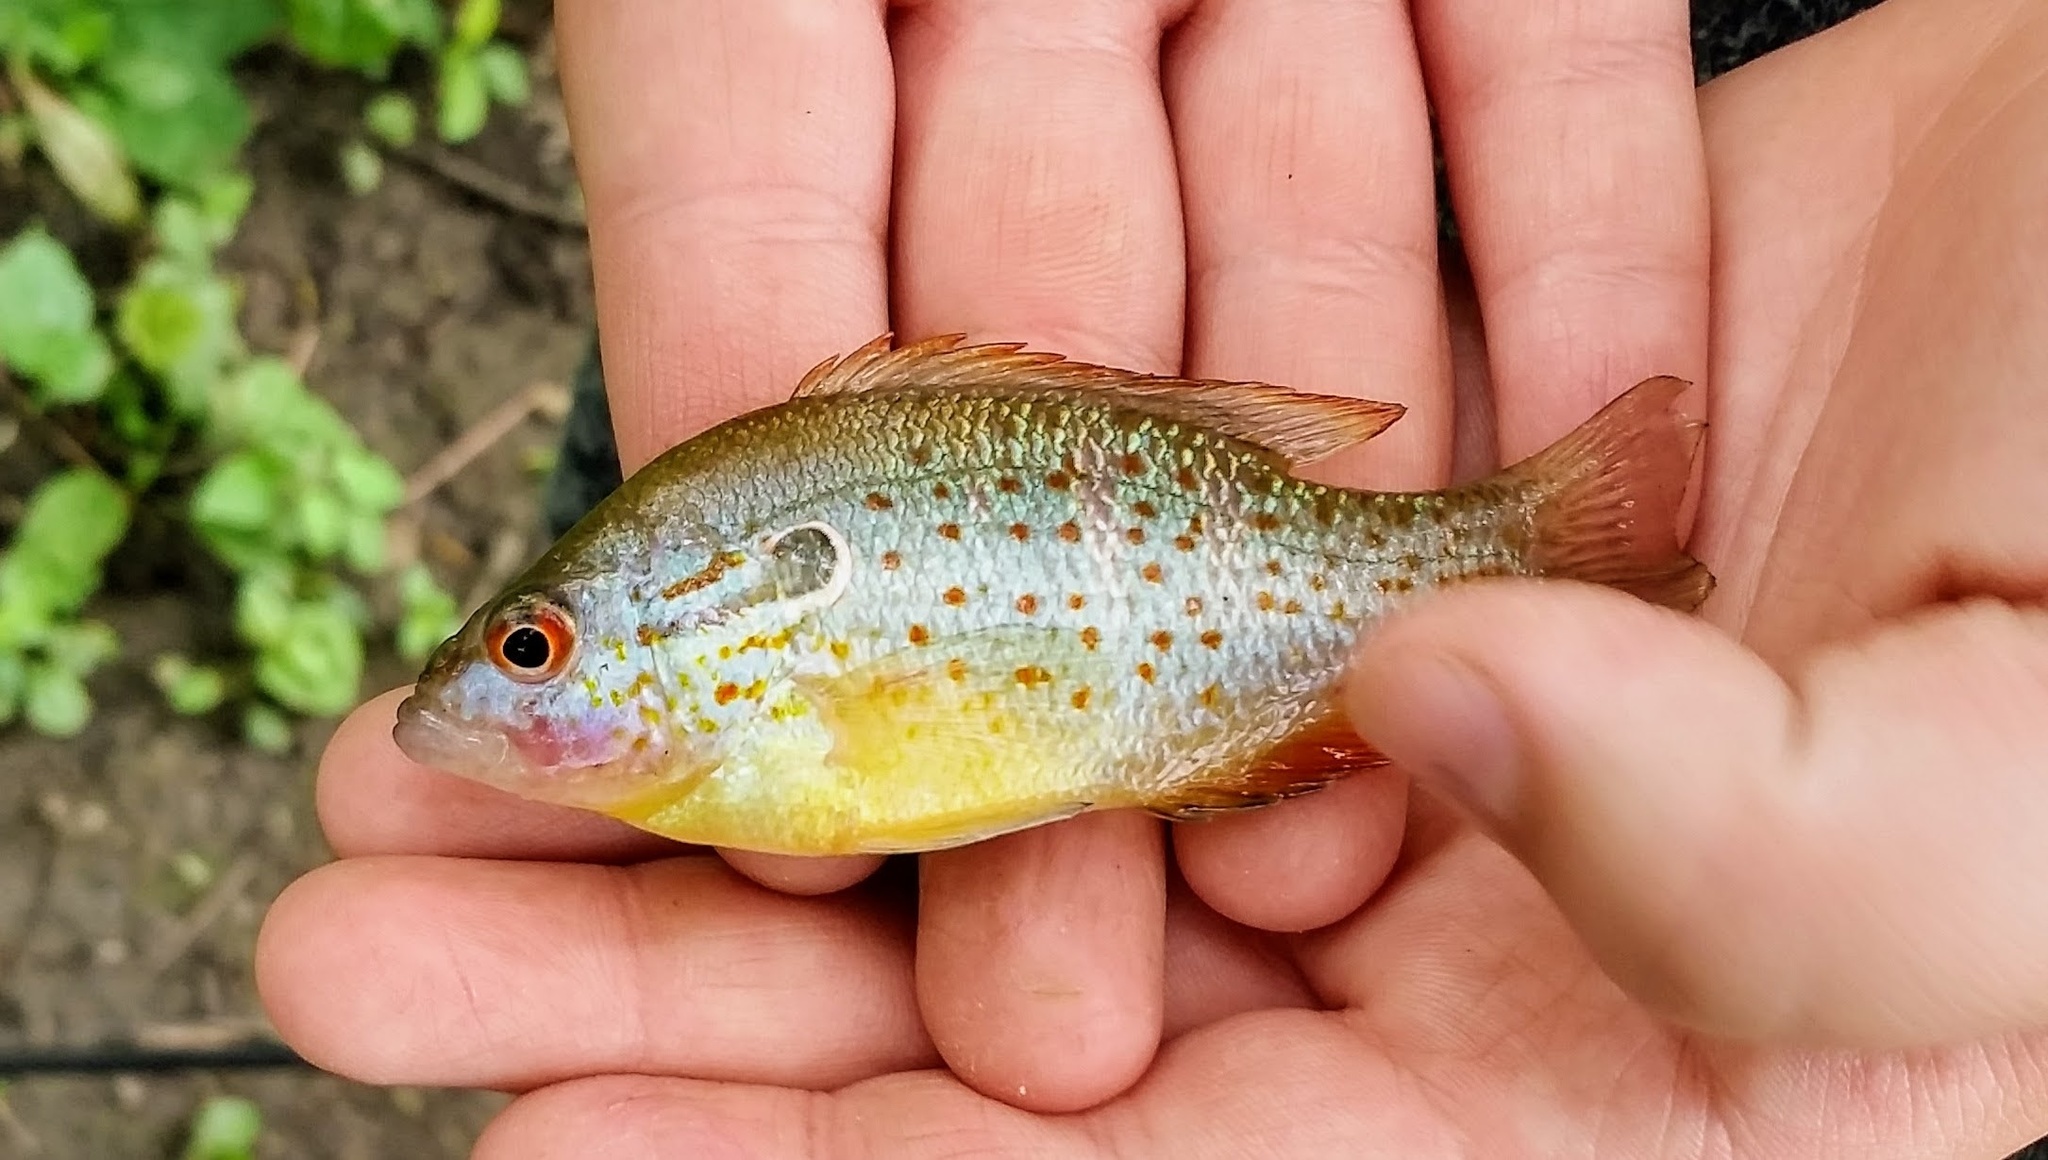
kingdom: Animalia
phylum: Chordata
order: Perciformes
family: Centrarchidae
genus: Lepomis
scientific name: Lepomis humilis
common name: Orangespotted sunfish
